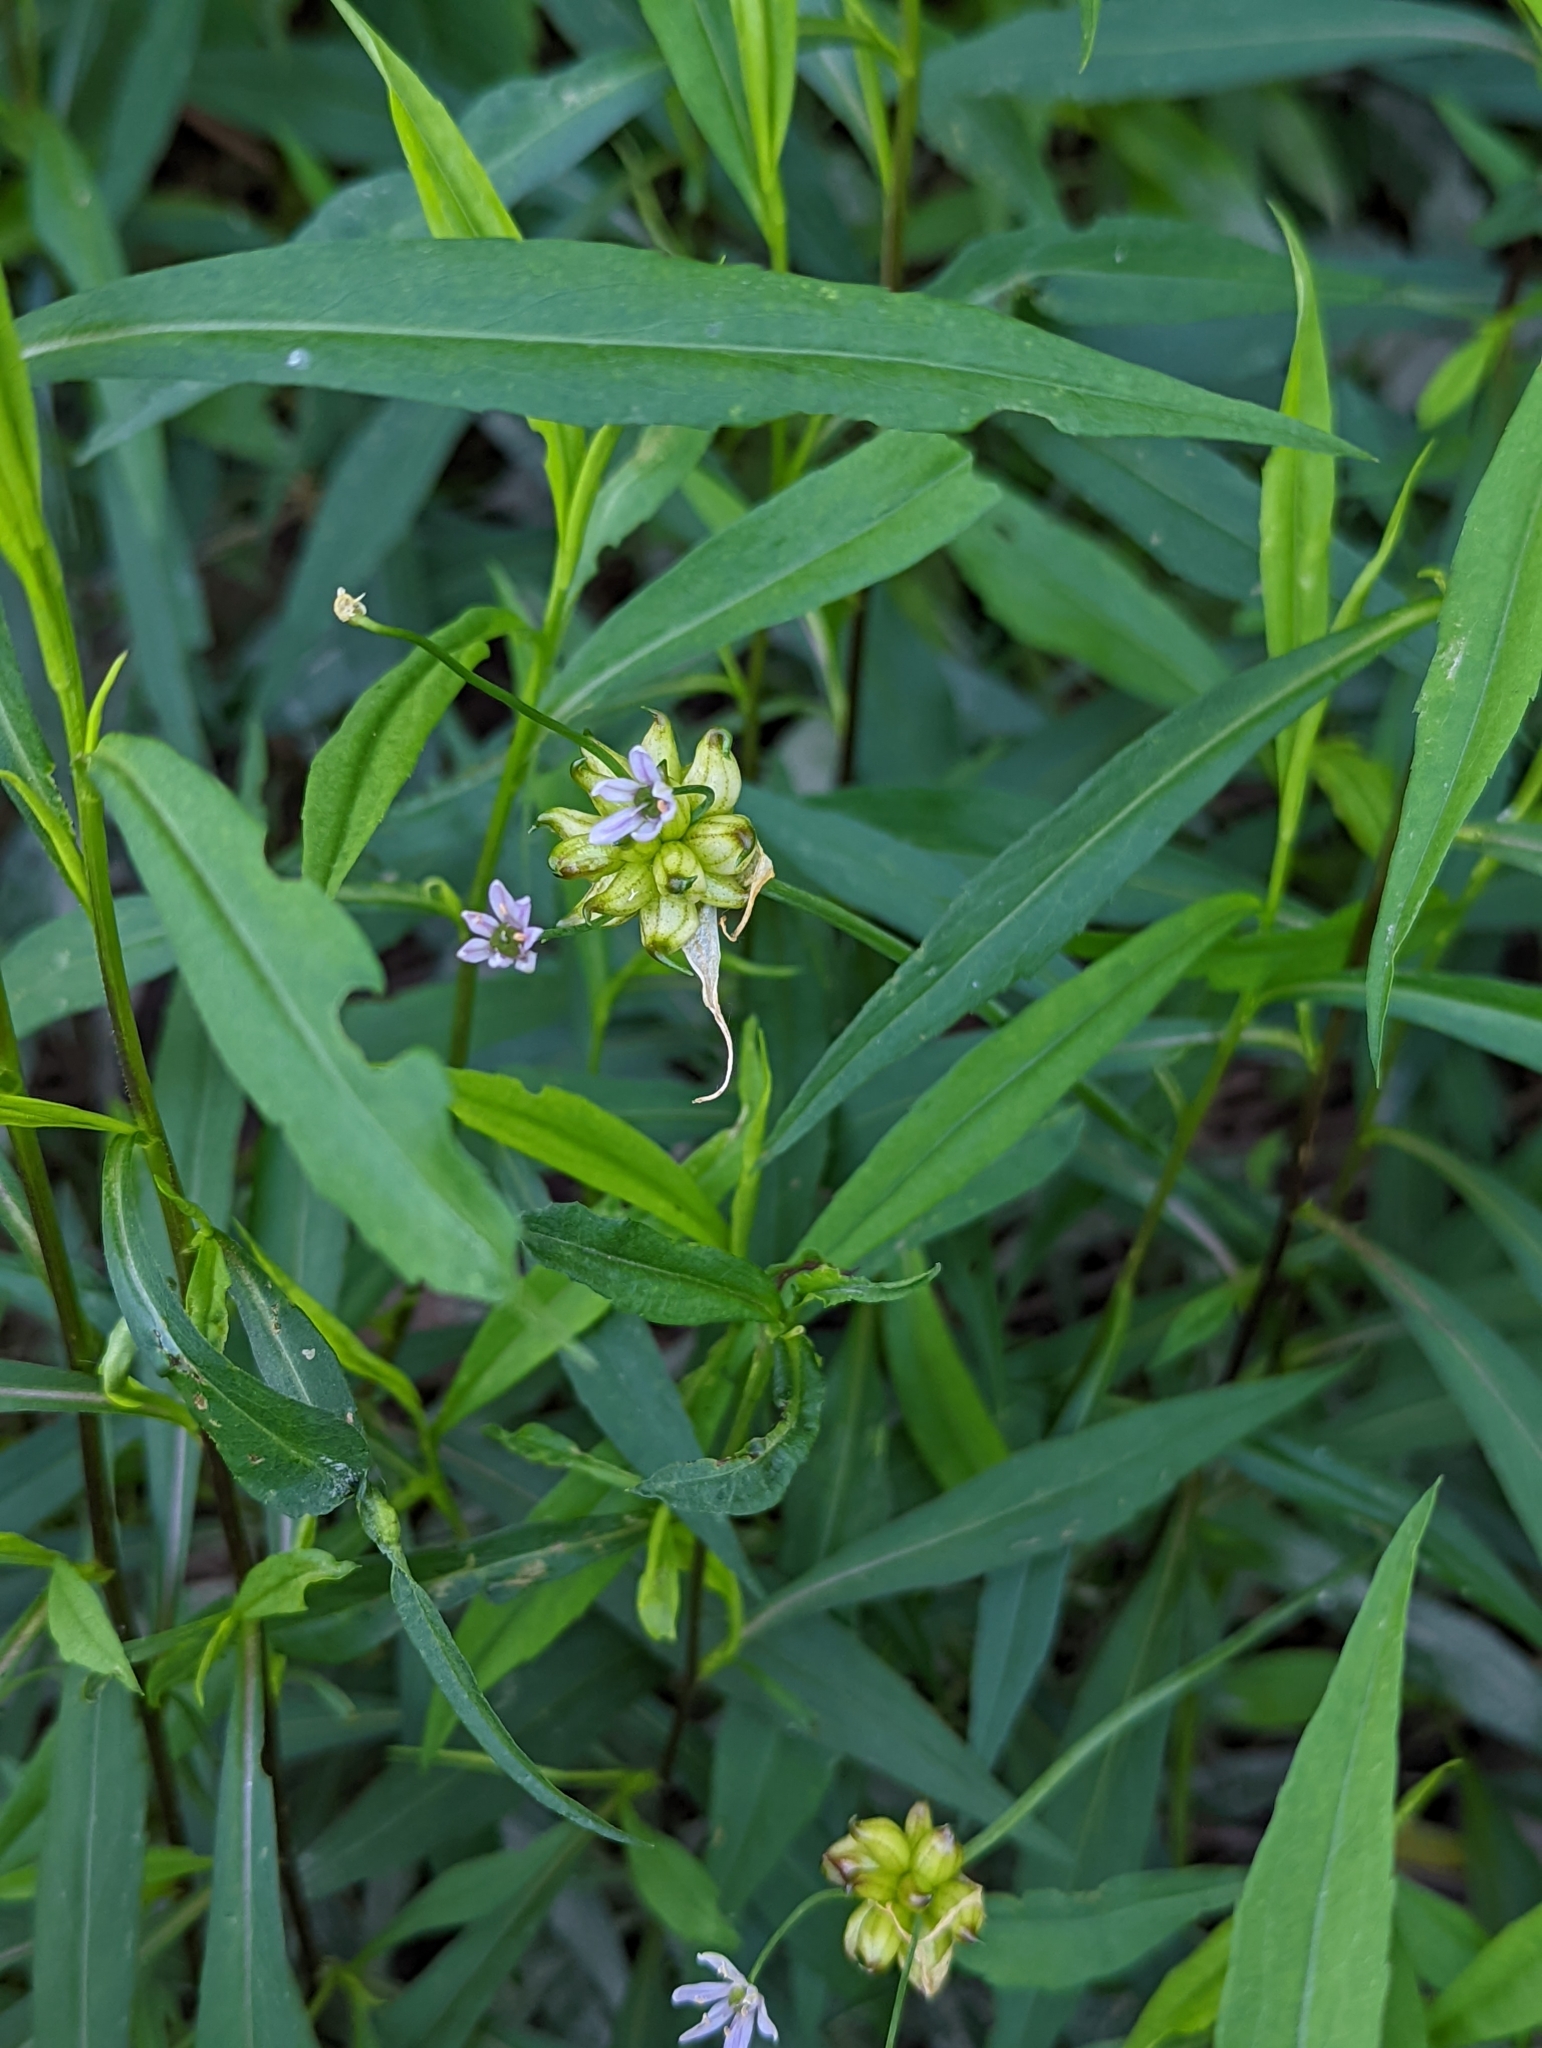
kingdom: Plantae
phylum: Tracheophyta
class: Liliopsida
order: Asparagales
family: Amaryllidaceae
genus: Allium
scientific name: Allium canadense
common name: Meadow garlic
